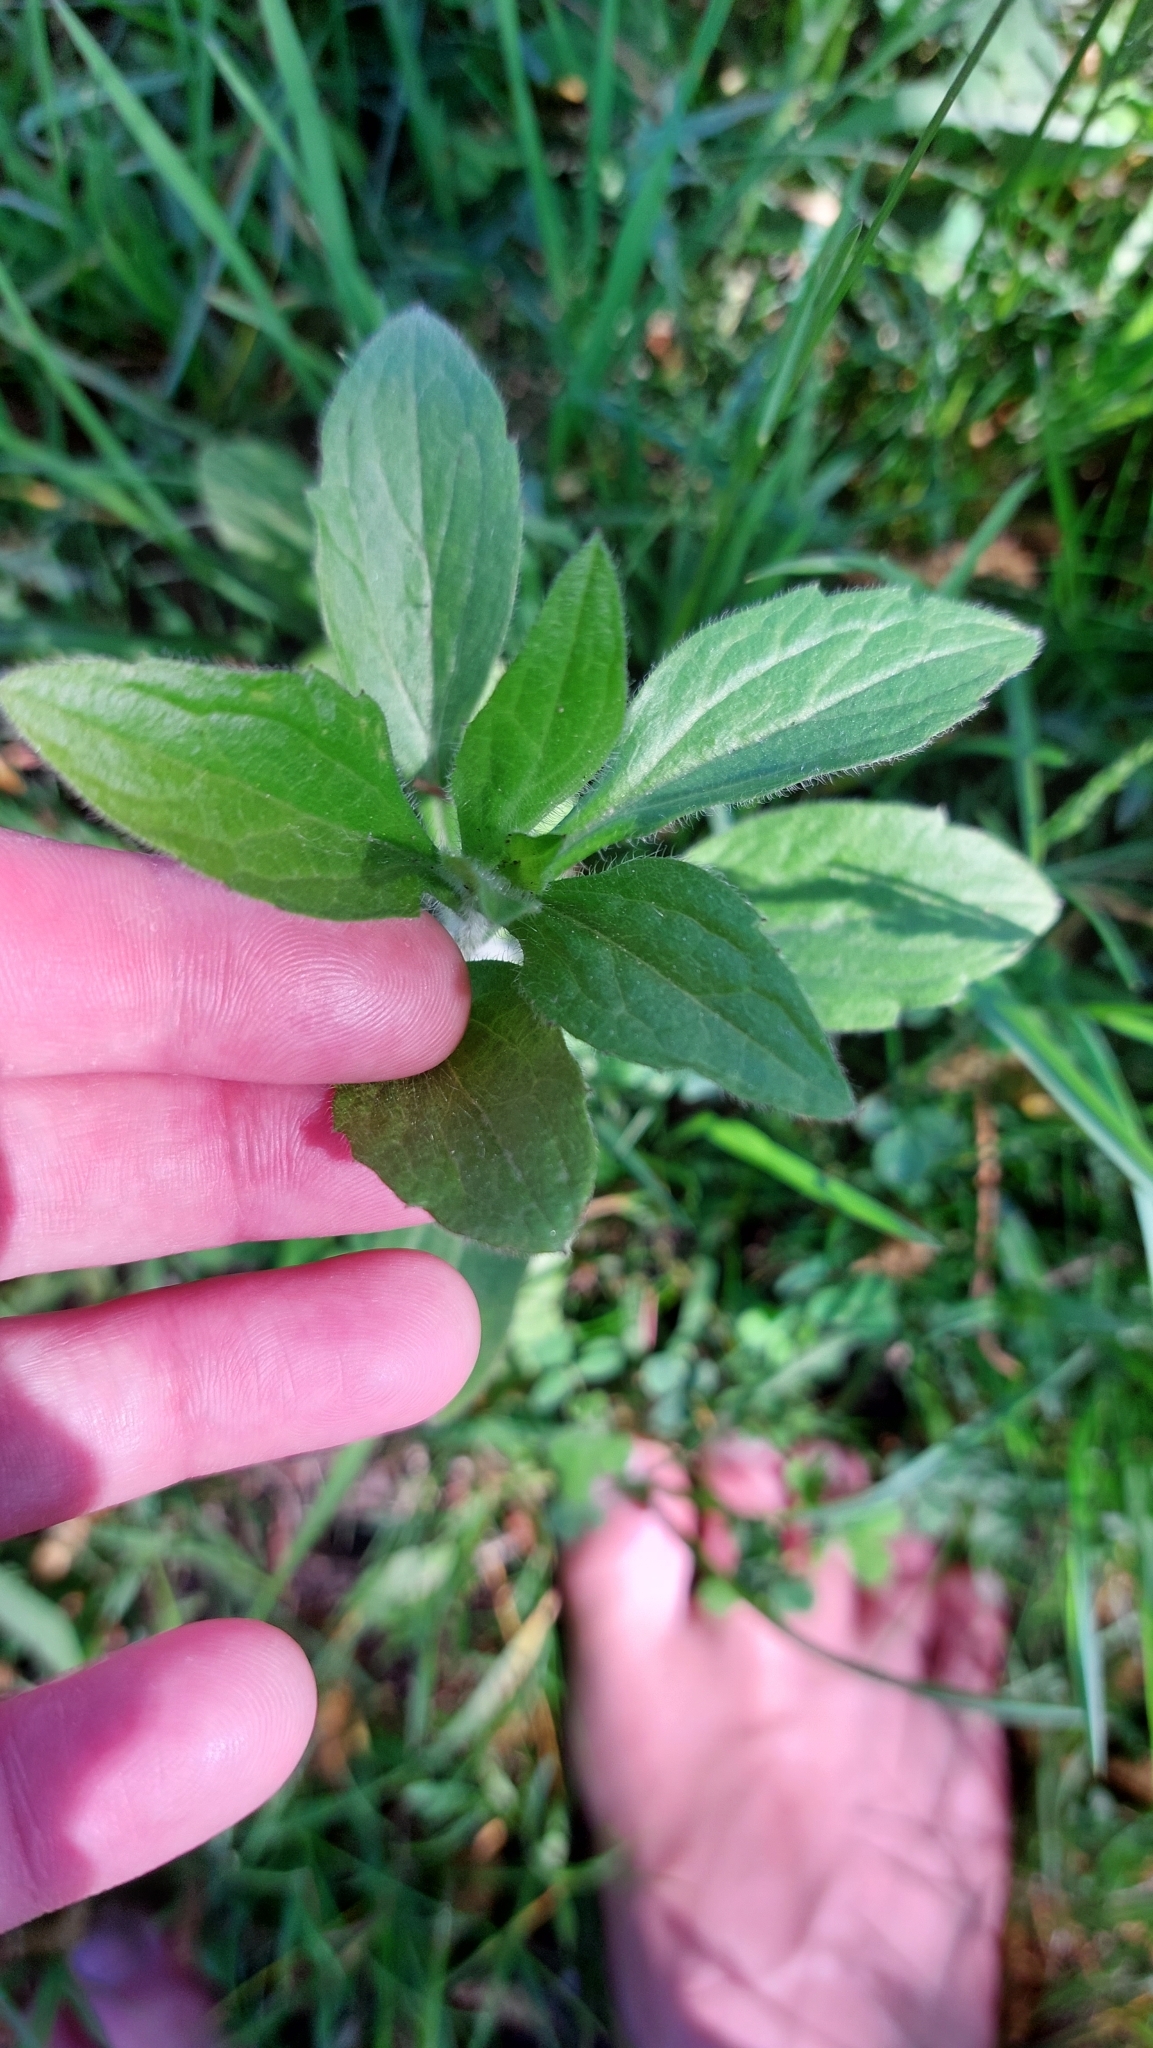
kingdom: Plantae
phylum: Tracheophyta
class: Magnoliopsida
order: Asterales
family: Asteraceae
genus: Erigeron
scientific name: Erigeron annuus
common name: Tall fleabane
